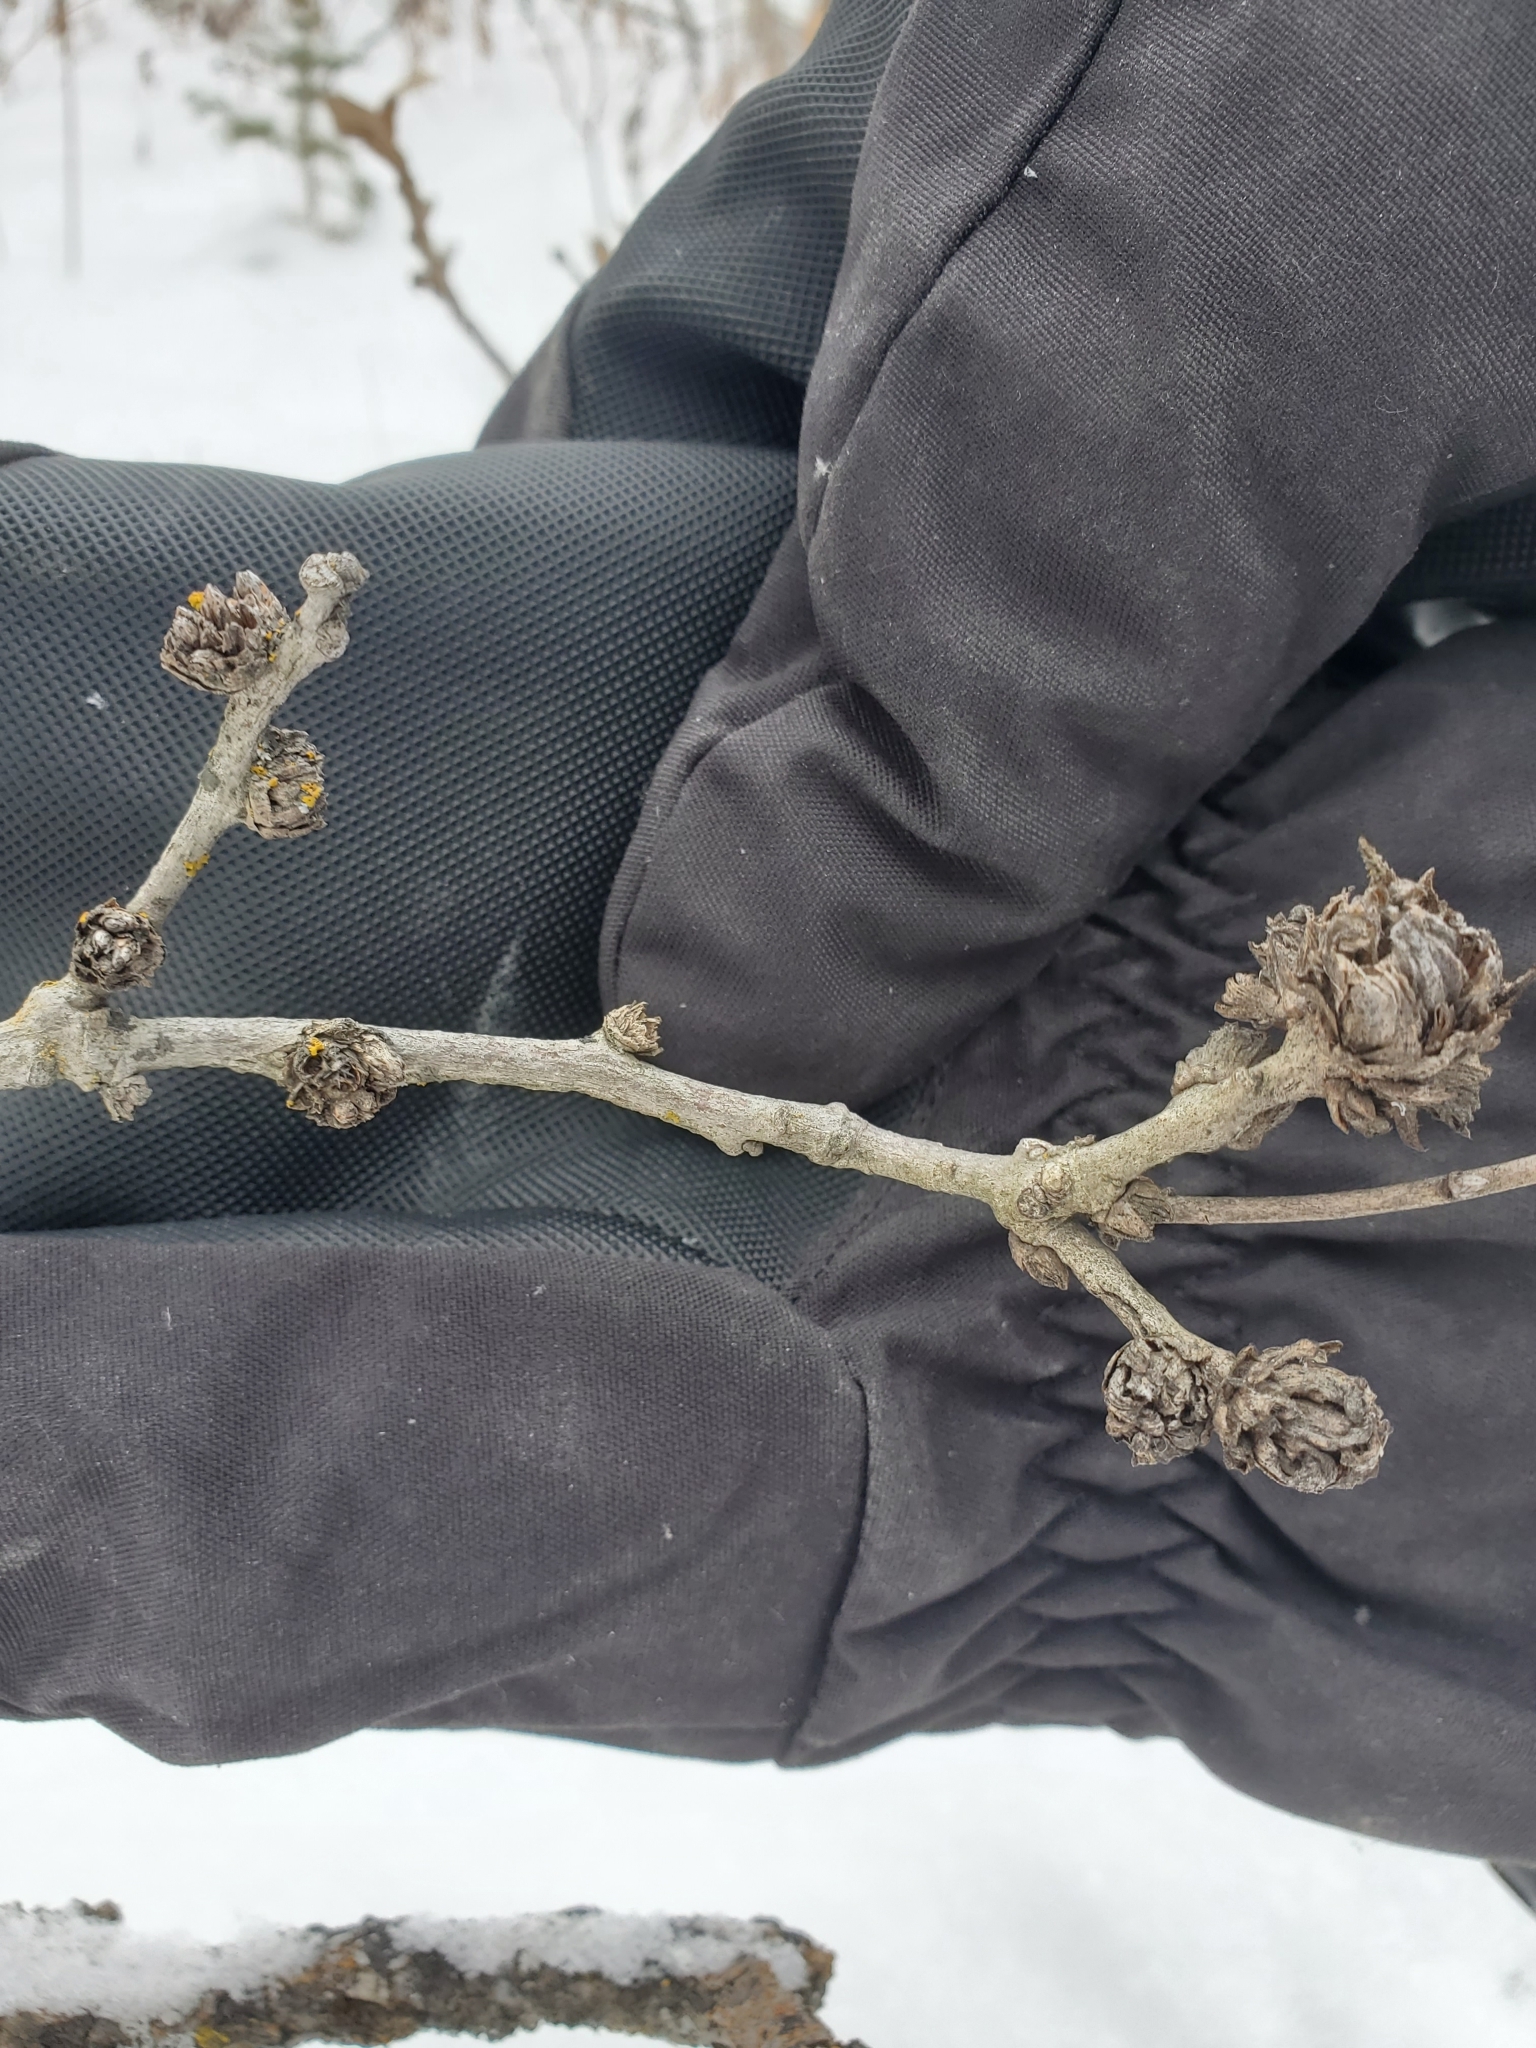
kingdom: Animalia
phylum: Arthropoda
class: Insecta
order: Hymenoptera
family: Cynipidae
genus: Andricus
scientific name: Andricus
